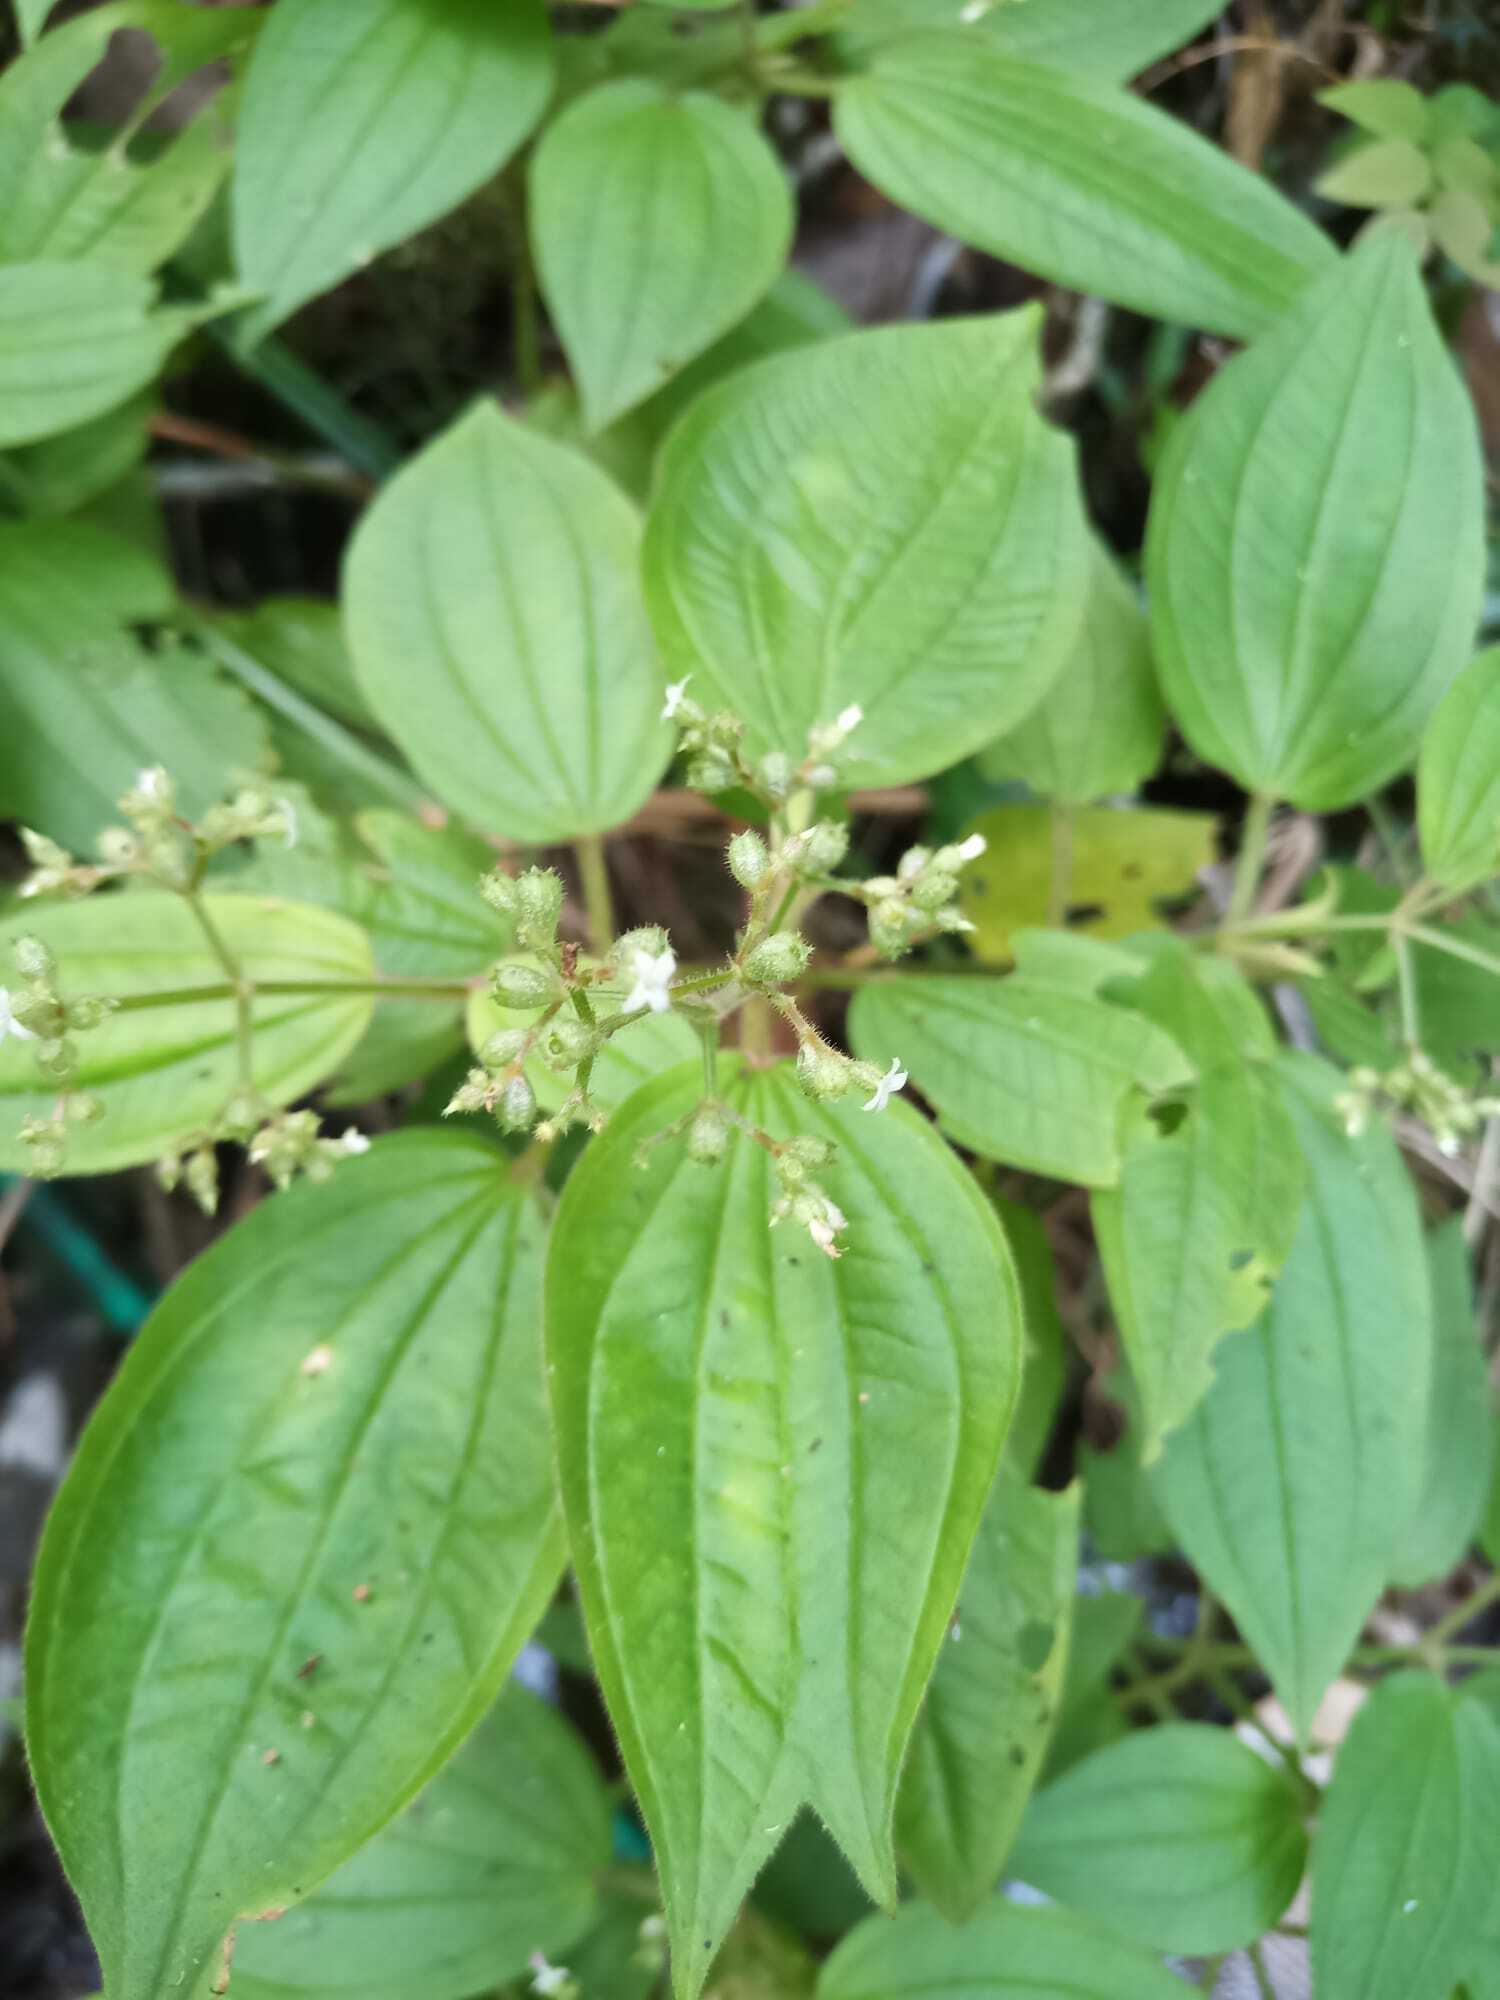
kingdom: Plantae
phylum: Tracheophyta
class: Magnoliopsida
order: Myrtales
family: Melastomataceae
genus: Aciotis
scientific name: Aciotis indecora
